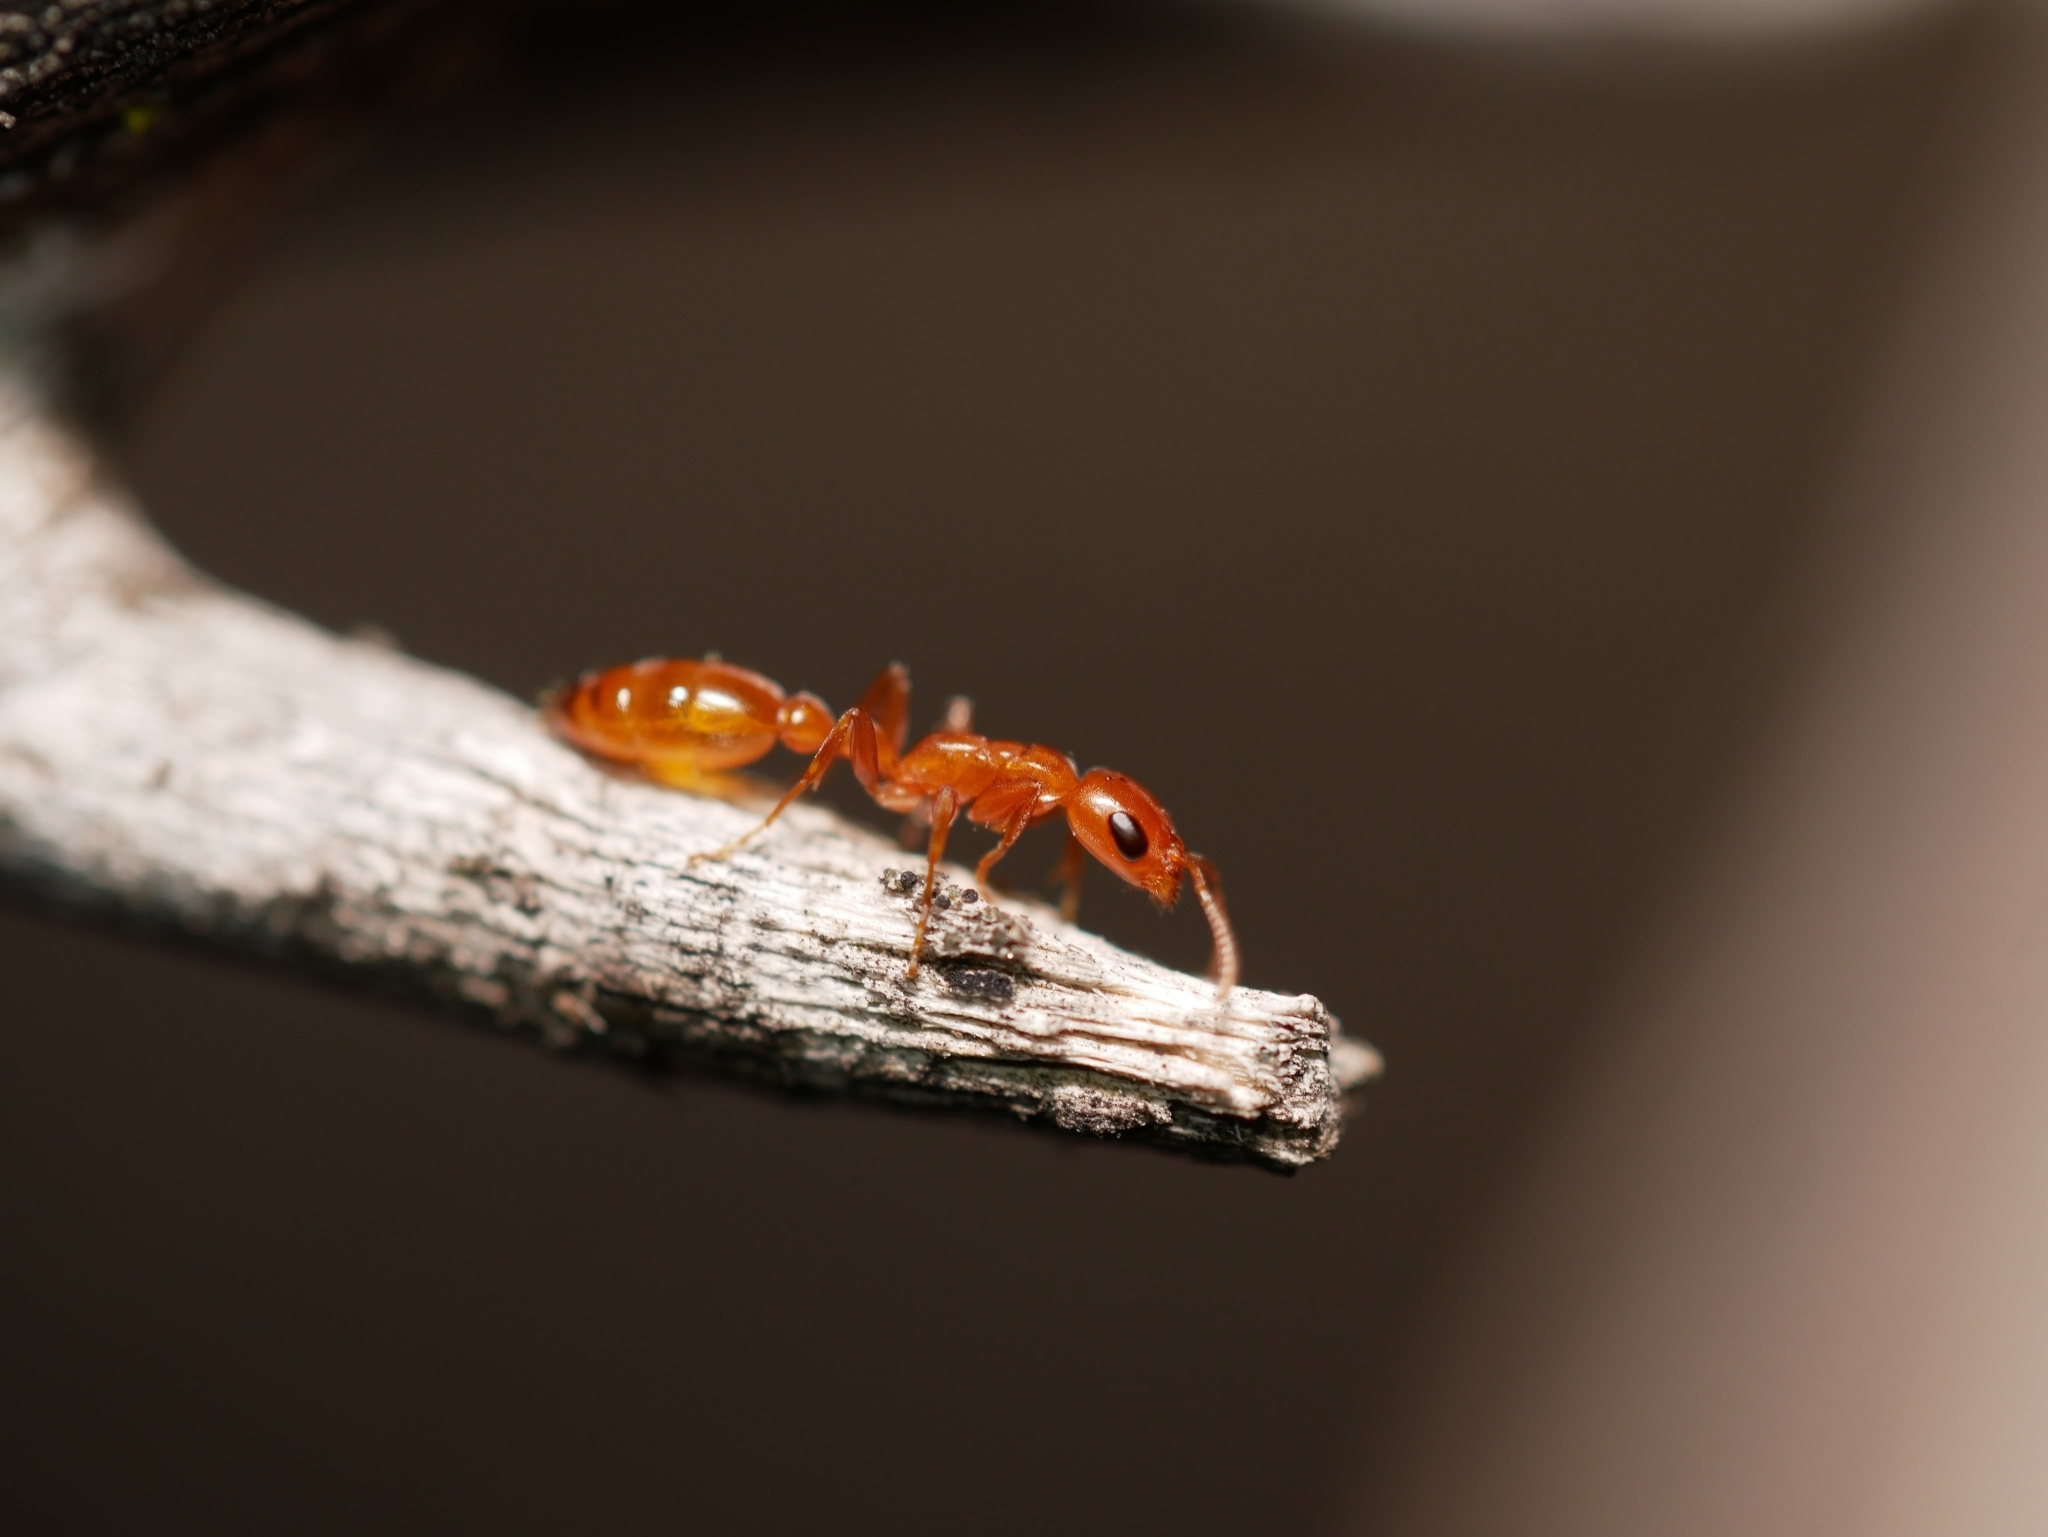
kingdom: Animalia
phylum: Arthropoda
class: Insecta
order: Hymenoptera
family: Formicidae
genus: Pseudomyrmex
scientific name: Pseudomyrmex apache
